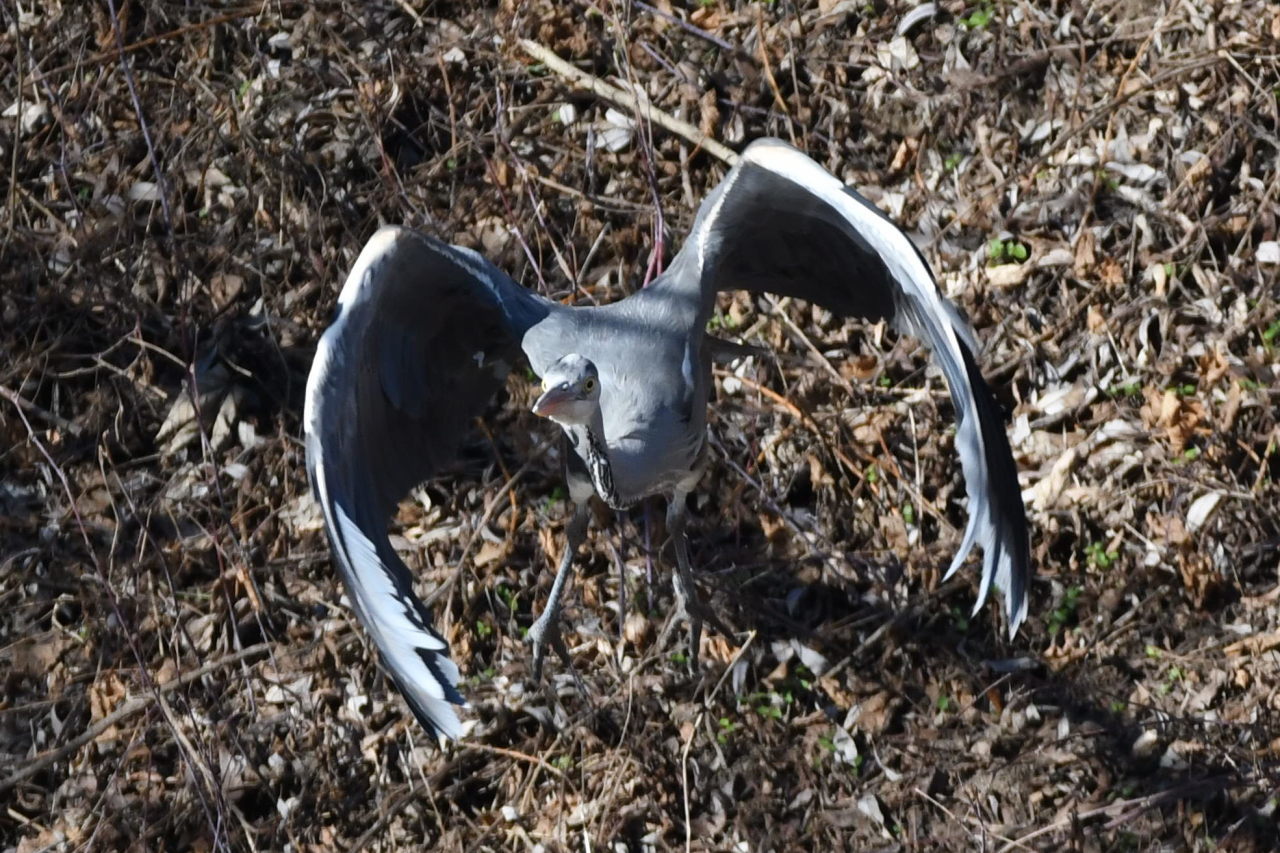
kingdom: Animalia
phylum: Chordata
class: Aves
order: Pelecaniformes
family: Ardeidae
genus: Ardea
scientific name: Ardea cinerea
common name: Grey heron
